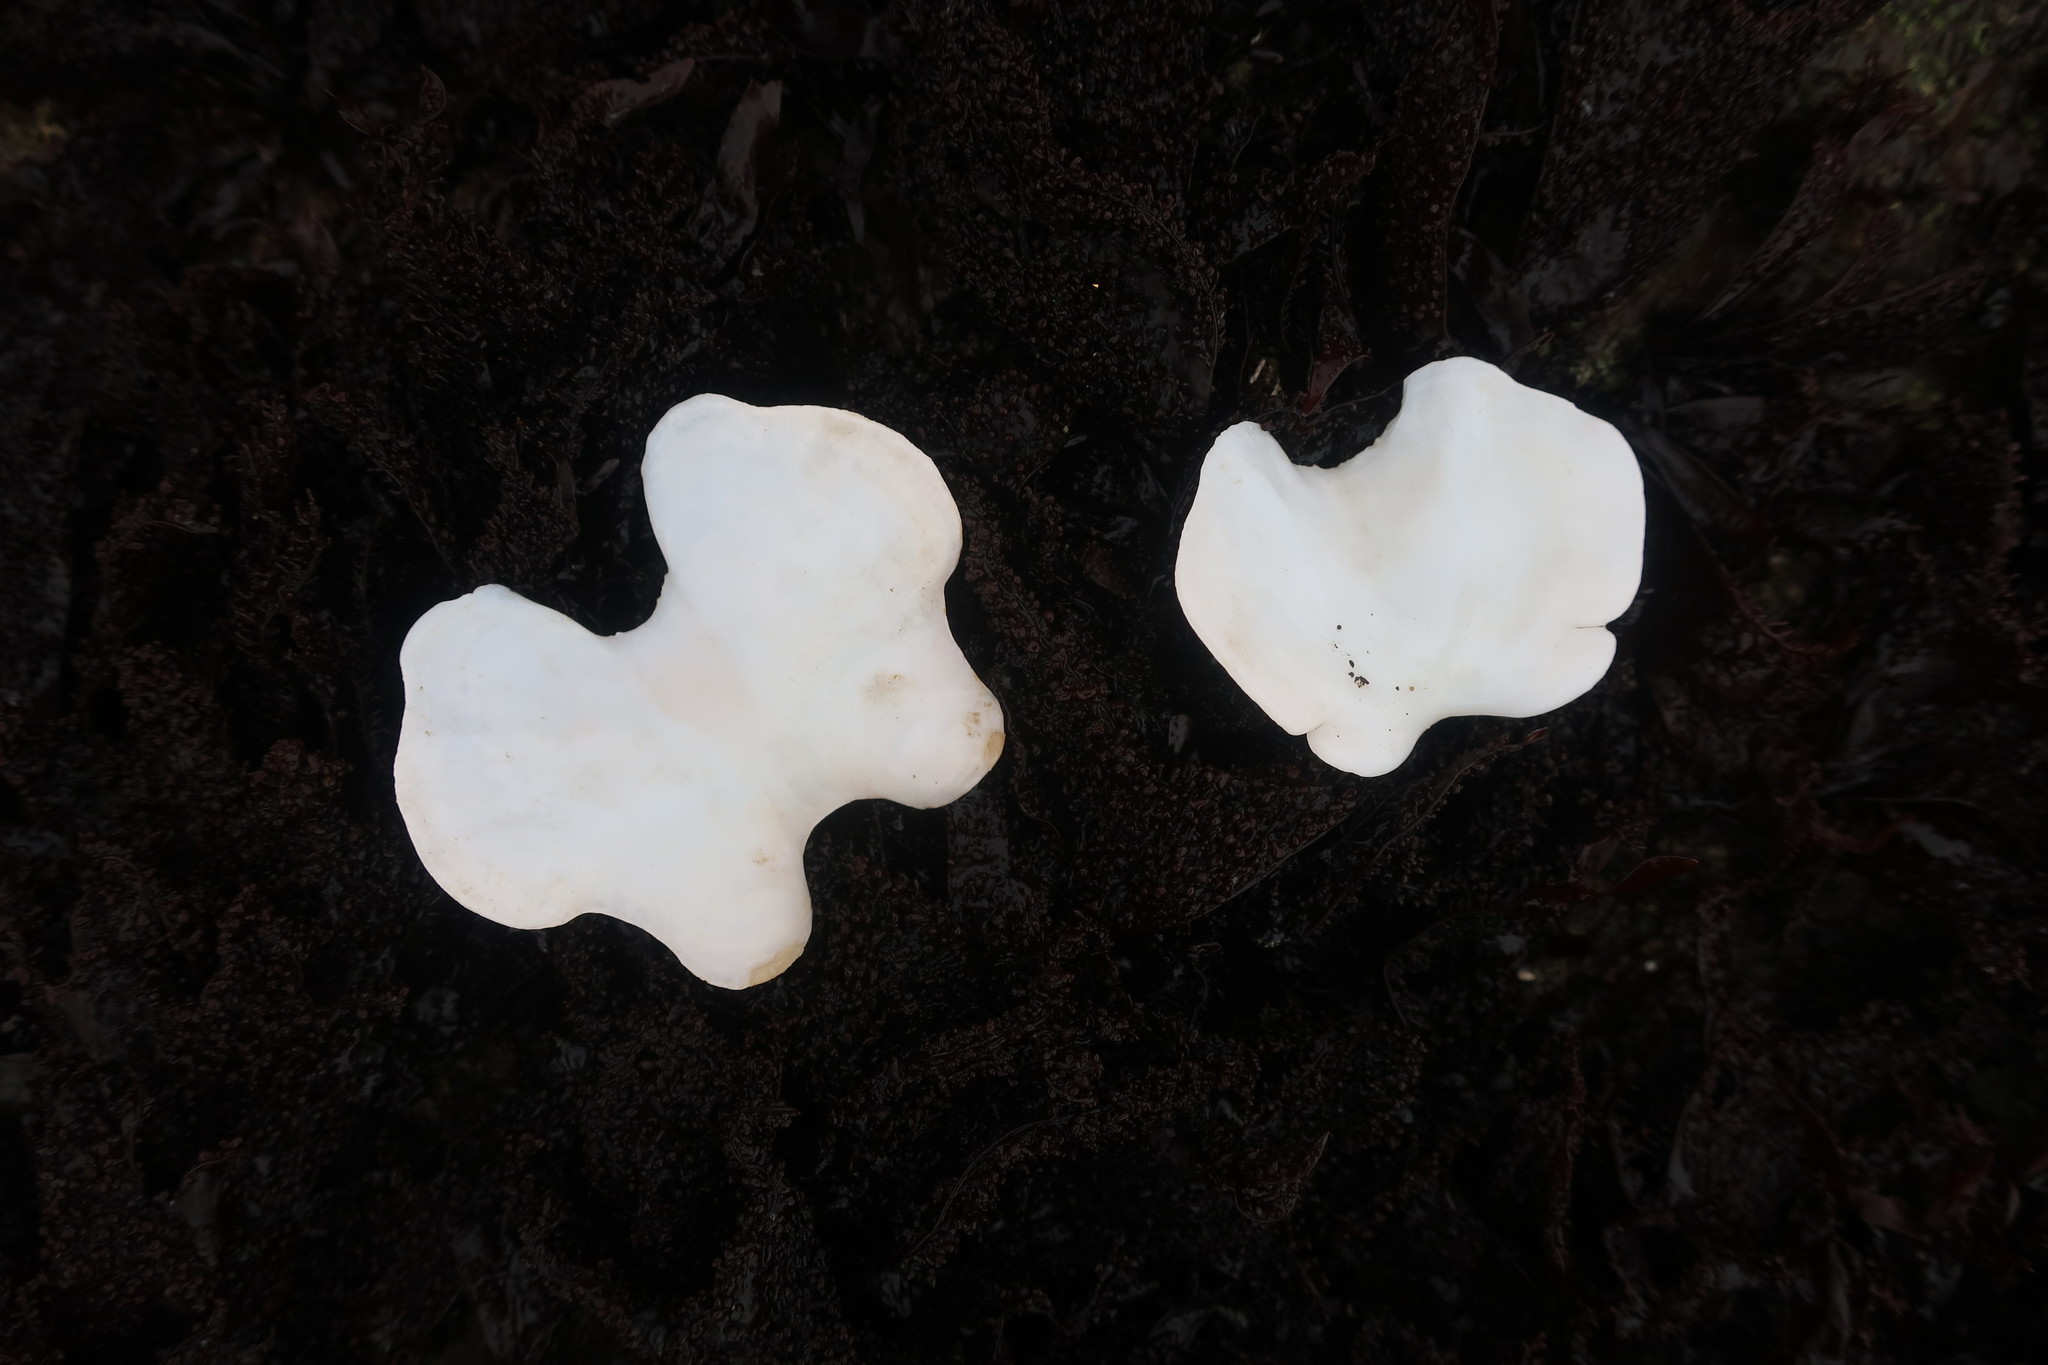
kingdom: Animalia
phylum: Mollusca
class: Polyplacophora
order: Chitonida
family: Acanthochitonidae
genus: Cryptochiton
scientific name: Cryptochiton stelleri
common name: Giant pacific chiton
